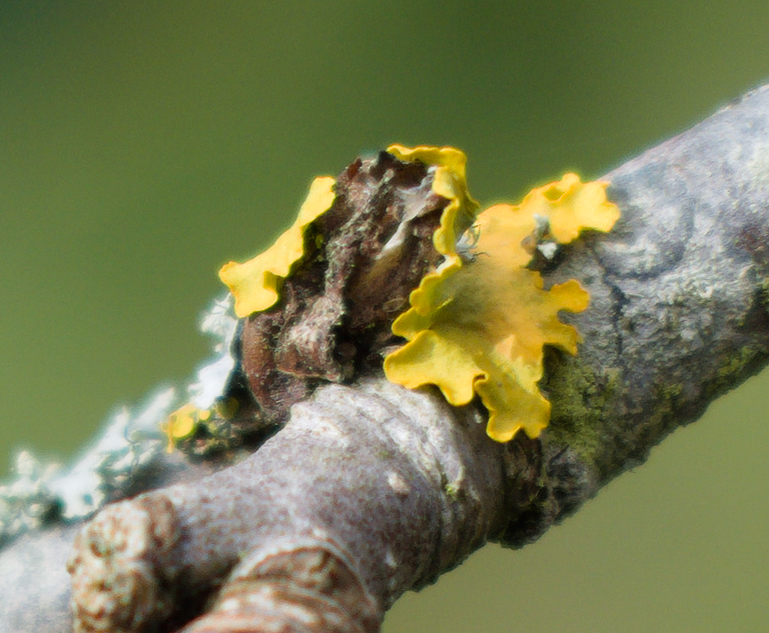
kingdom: Fungi
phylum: Ascomycota
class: Lecanoromycetes
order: Teloschistales
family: Teloschistaceae
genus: Xanthoria
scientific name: Xanthoria parietina
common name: Common orange lichen
